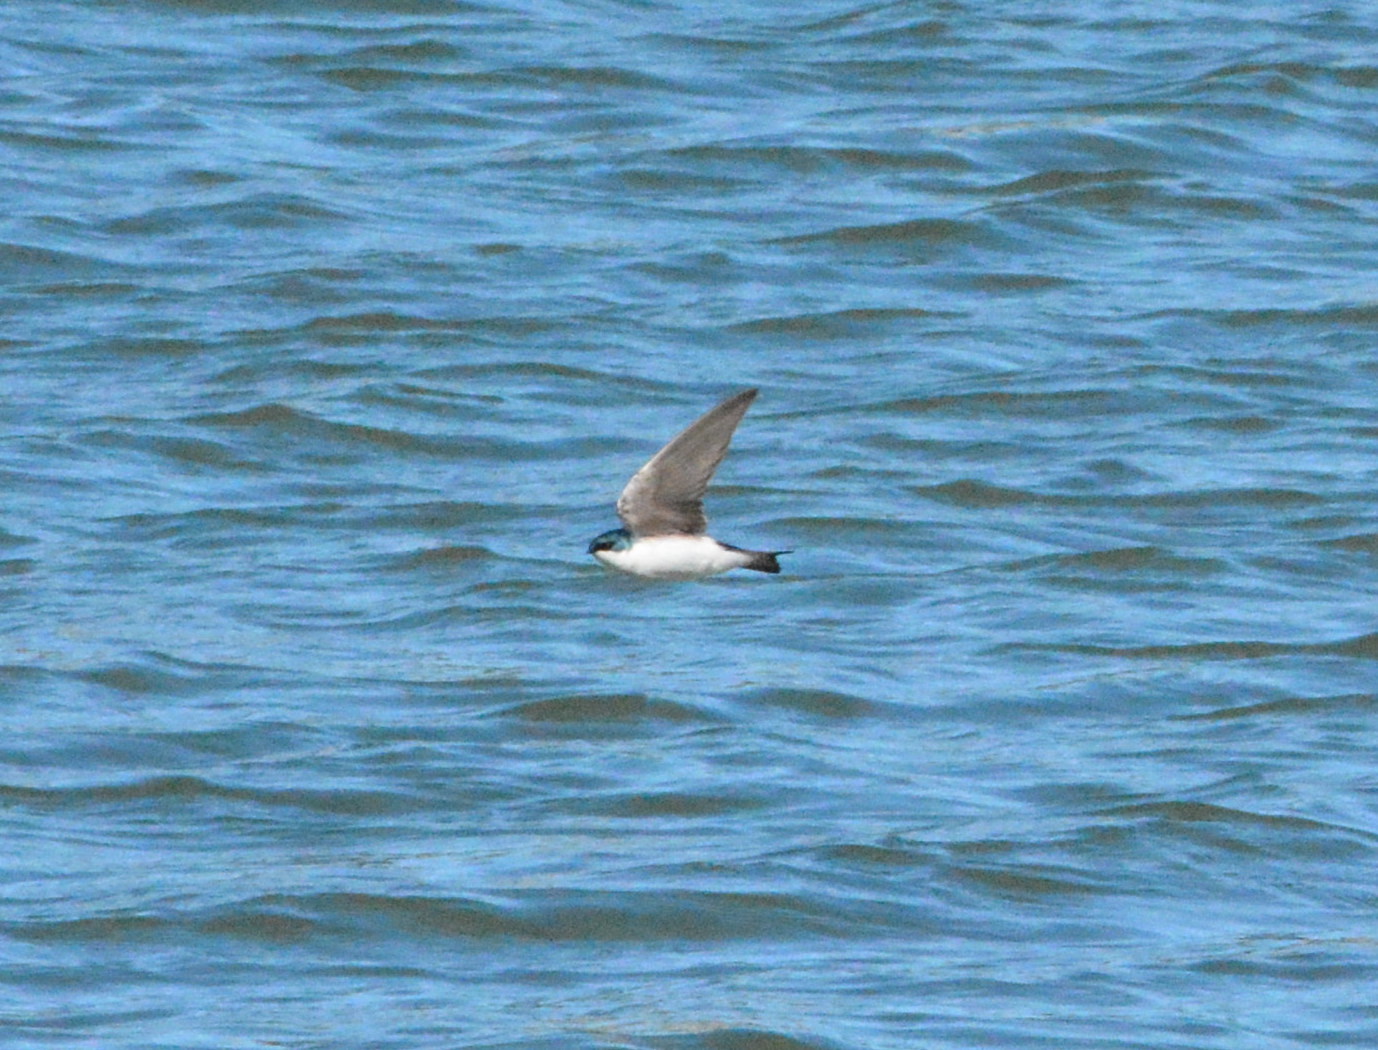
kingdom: Animalia
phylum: Chordata
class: Aves
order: Passeriformes
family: Hirundinidae
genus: Tachycineta
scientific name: Tachycineta bicolor
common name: Tree swallow
